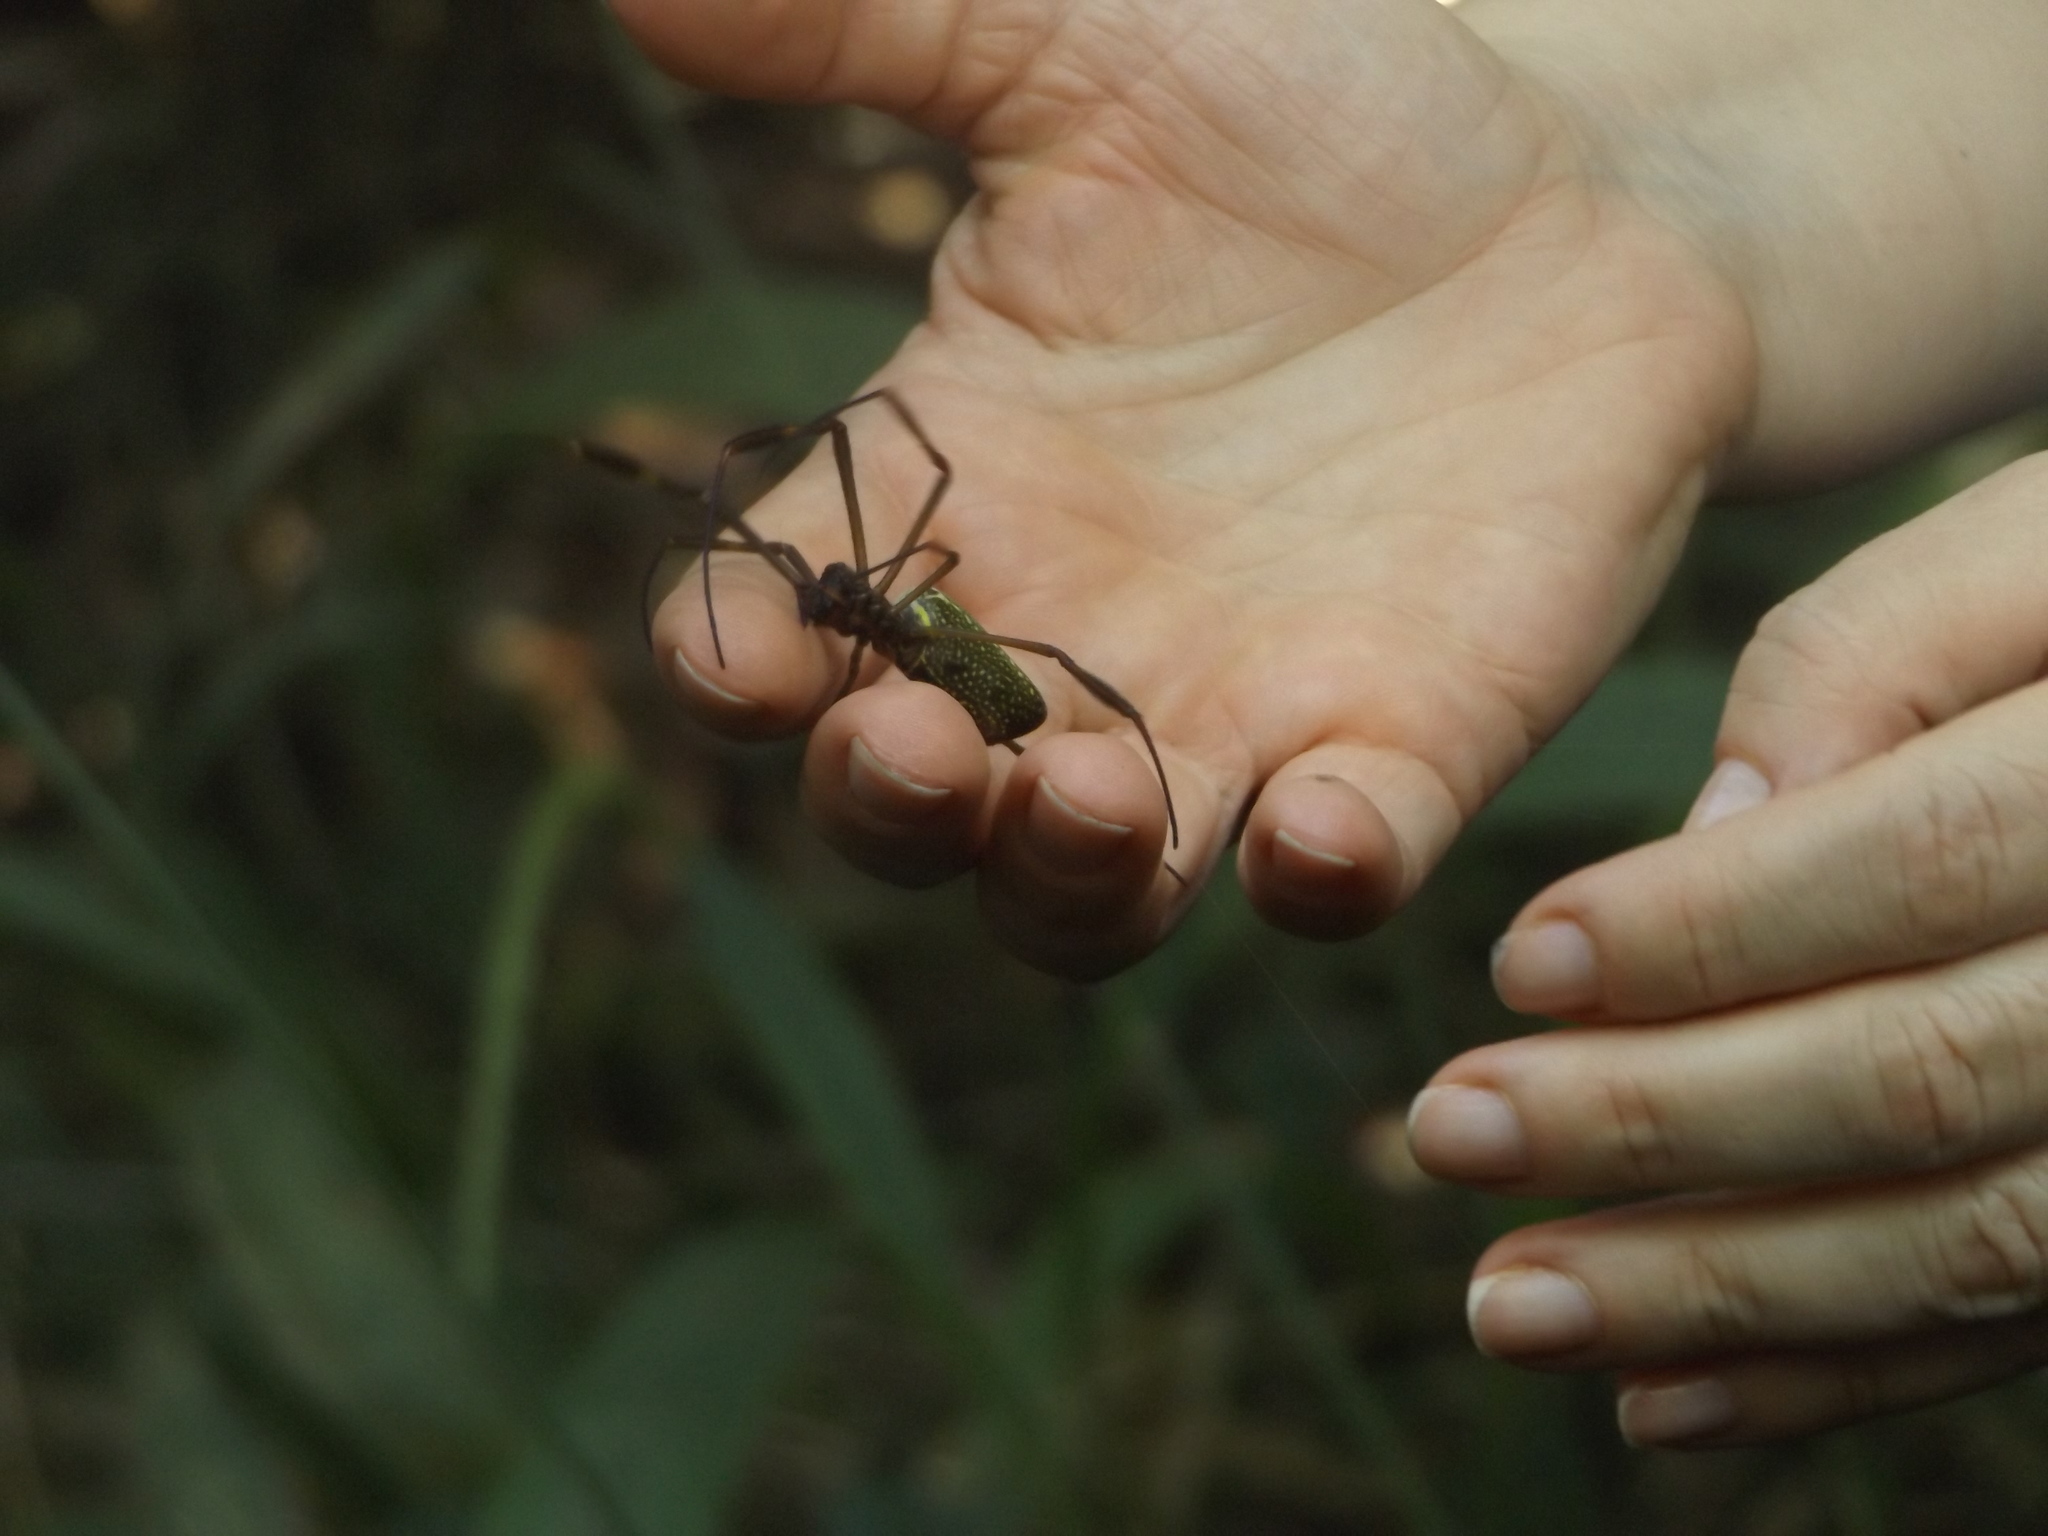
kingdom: Animalia
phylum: Arthropoda
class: Arachnida
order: Araneae
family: Araneidae
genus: Trichonephila
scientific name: Trichonephila clavipes
